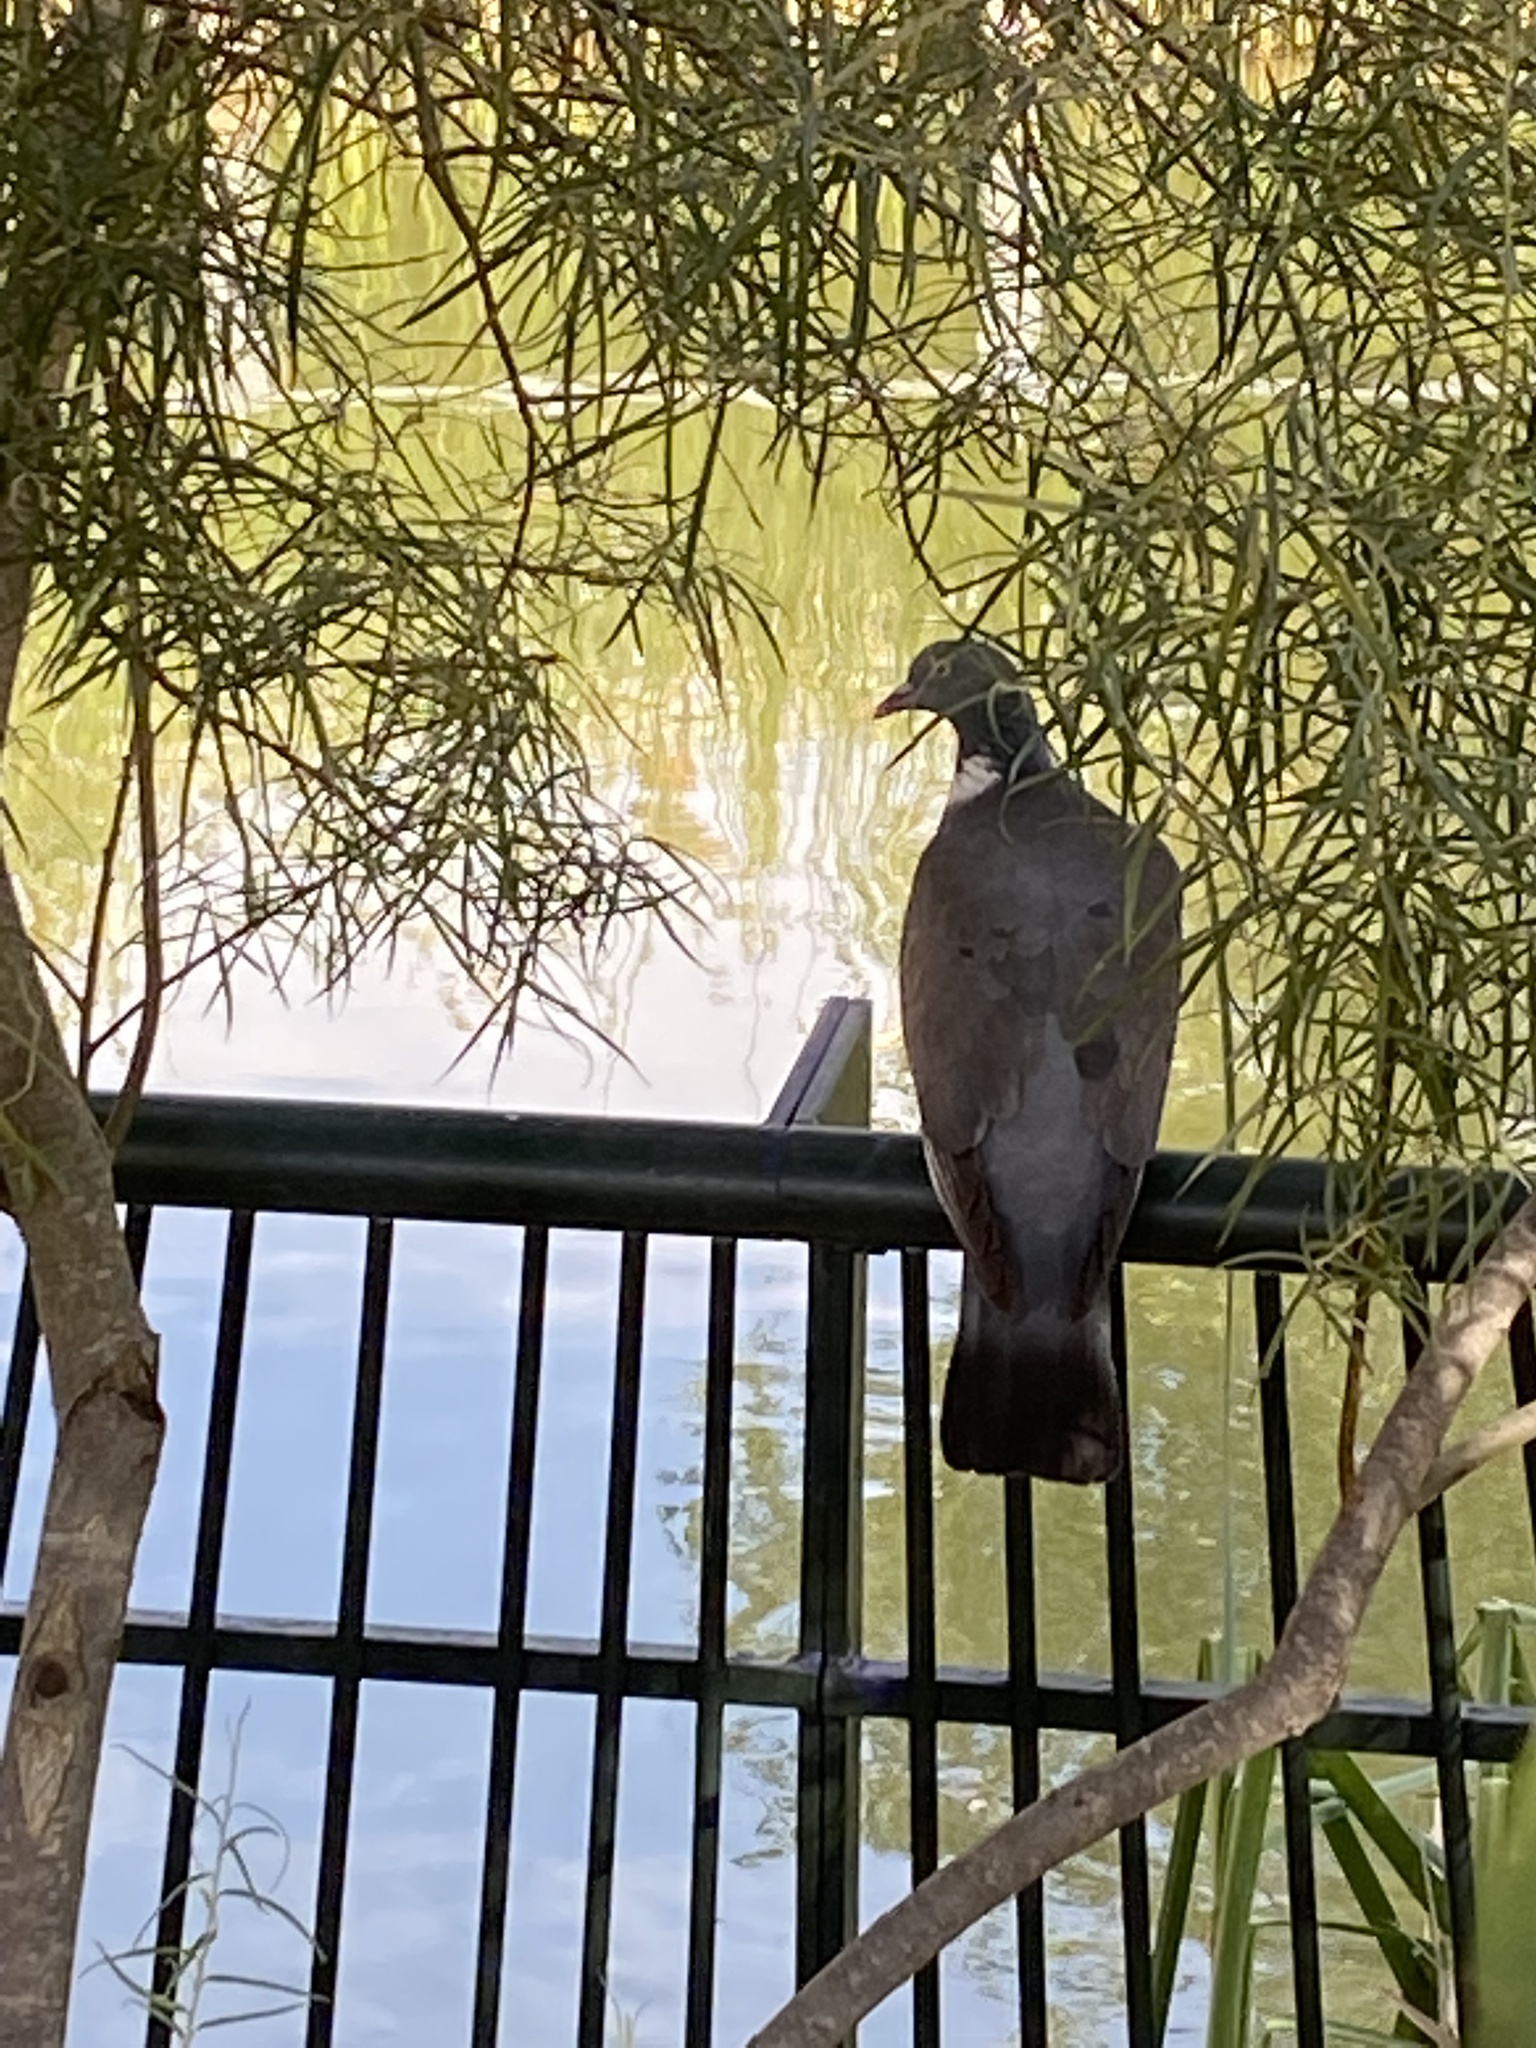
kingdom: Animalia
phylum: Chordata
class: Aves
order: Columbiformes
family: Columbidae
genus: Columba
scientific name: Columba palumbus
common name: Common wood pigeon
